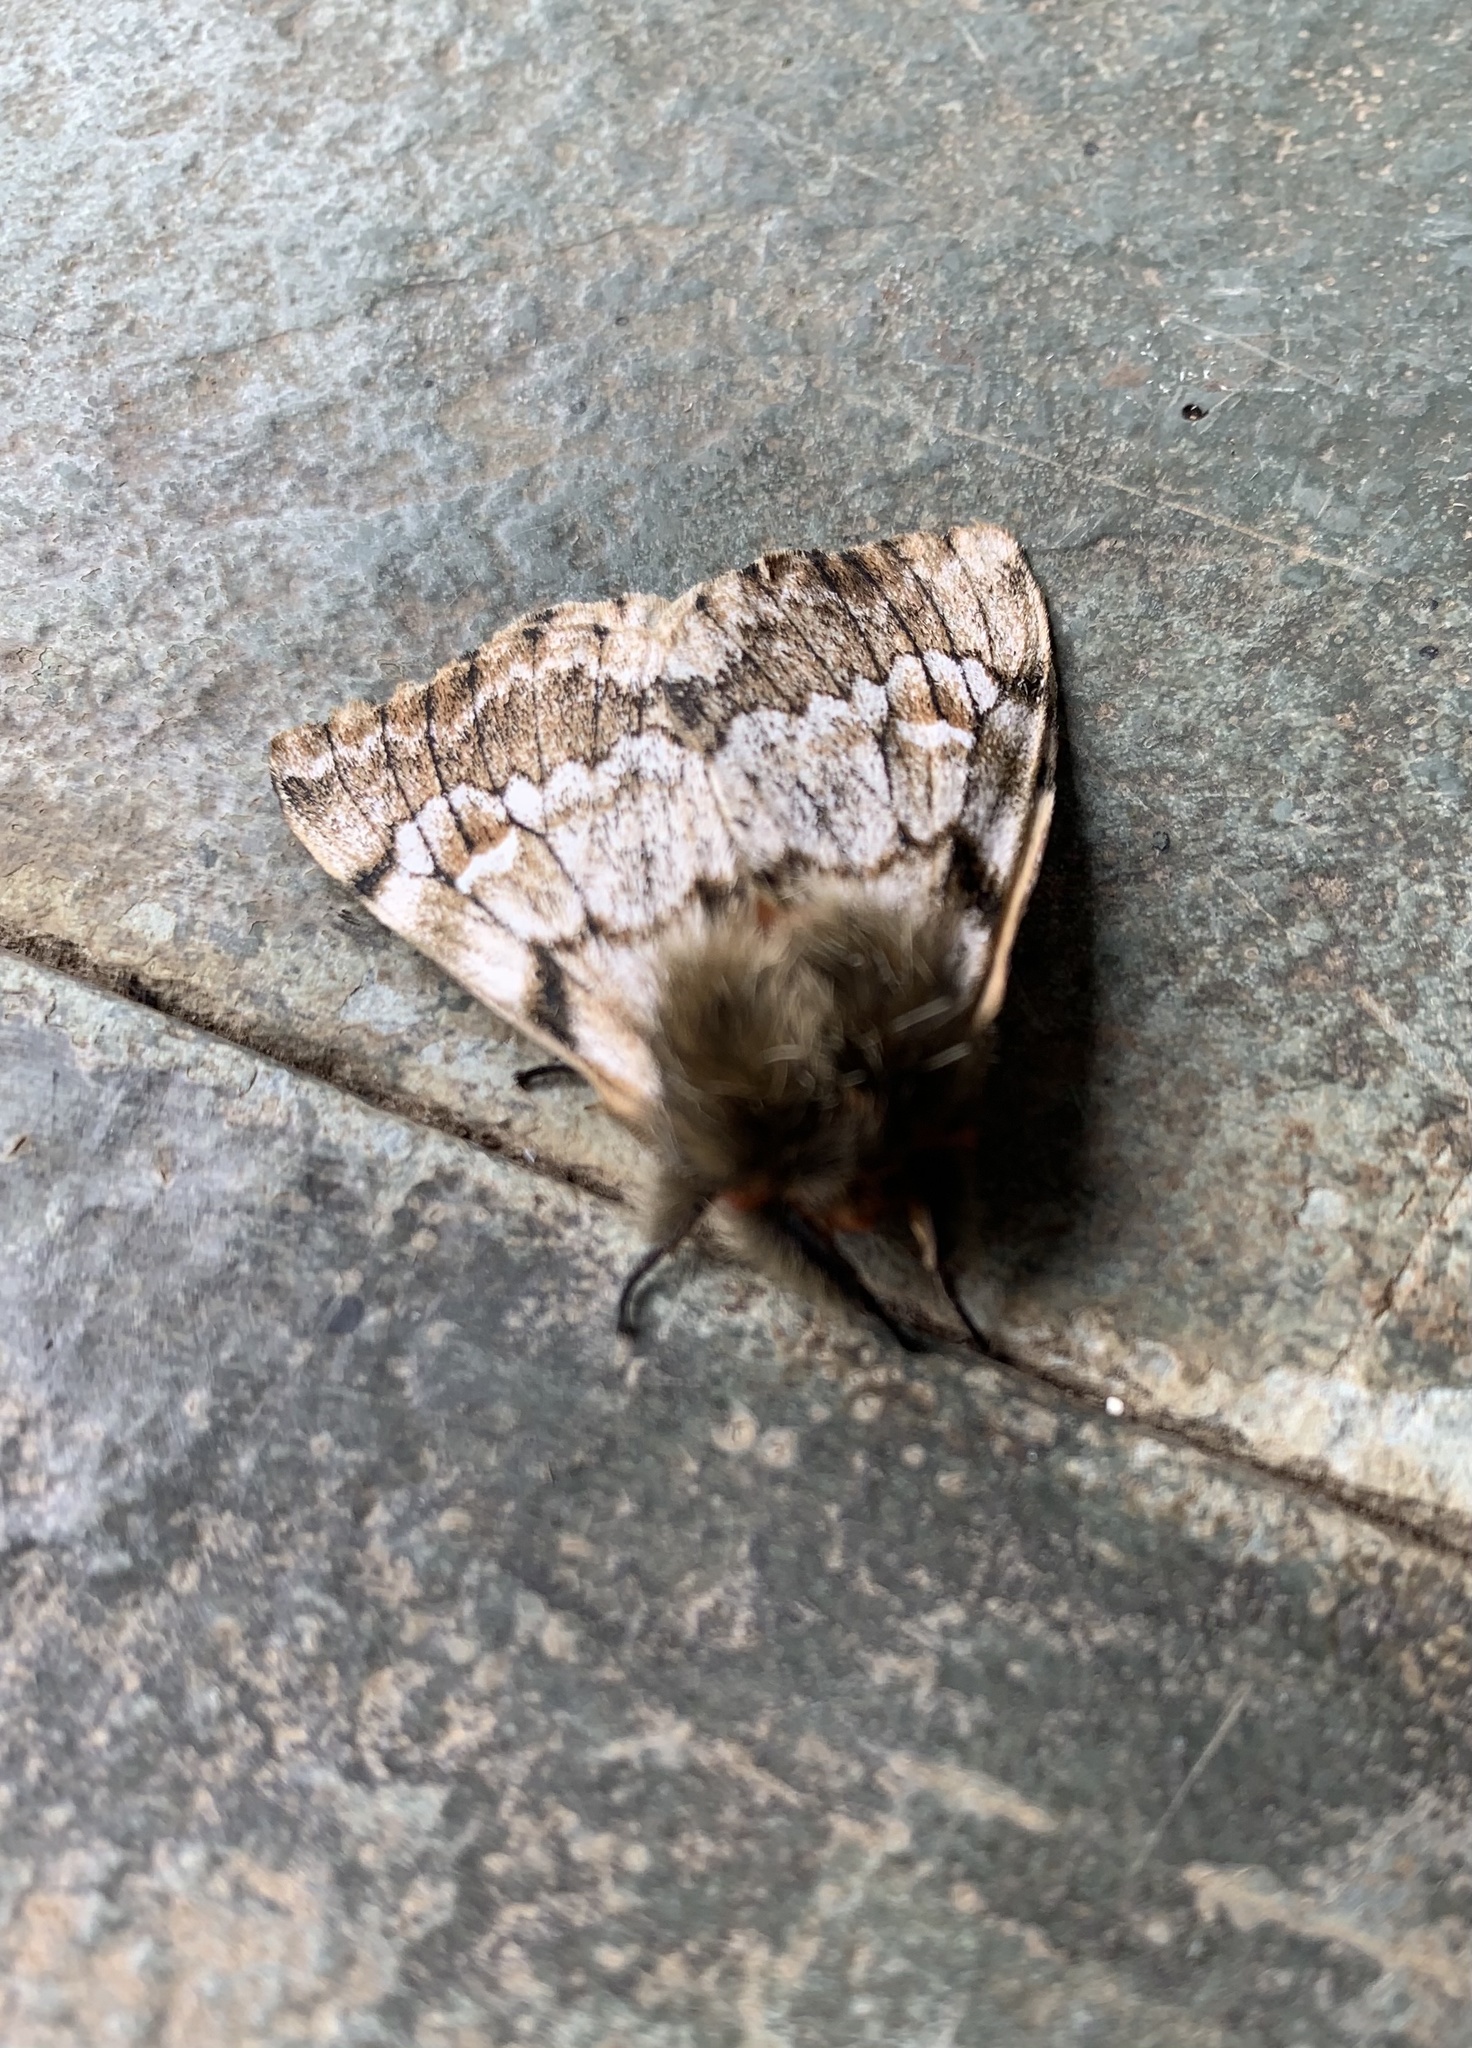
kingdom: Animalia
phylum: Arthropoda
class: Insecta
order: Lepidoptera
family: Saturniidae
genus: Ormiscodes
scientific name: Ormiscodes nigrosignata
